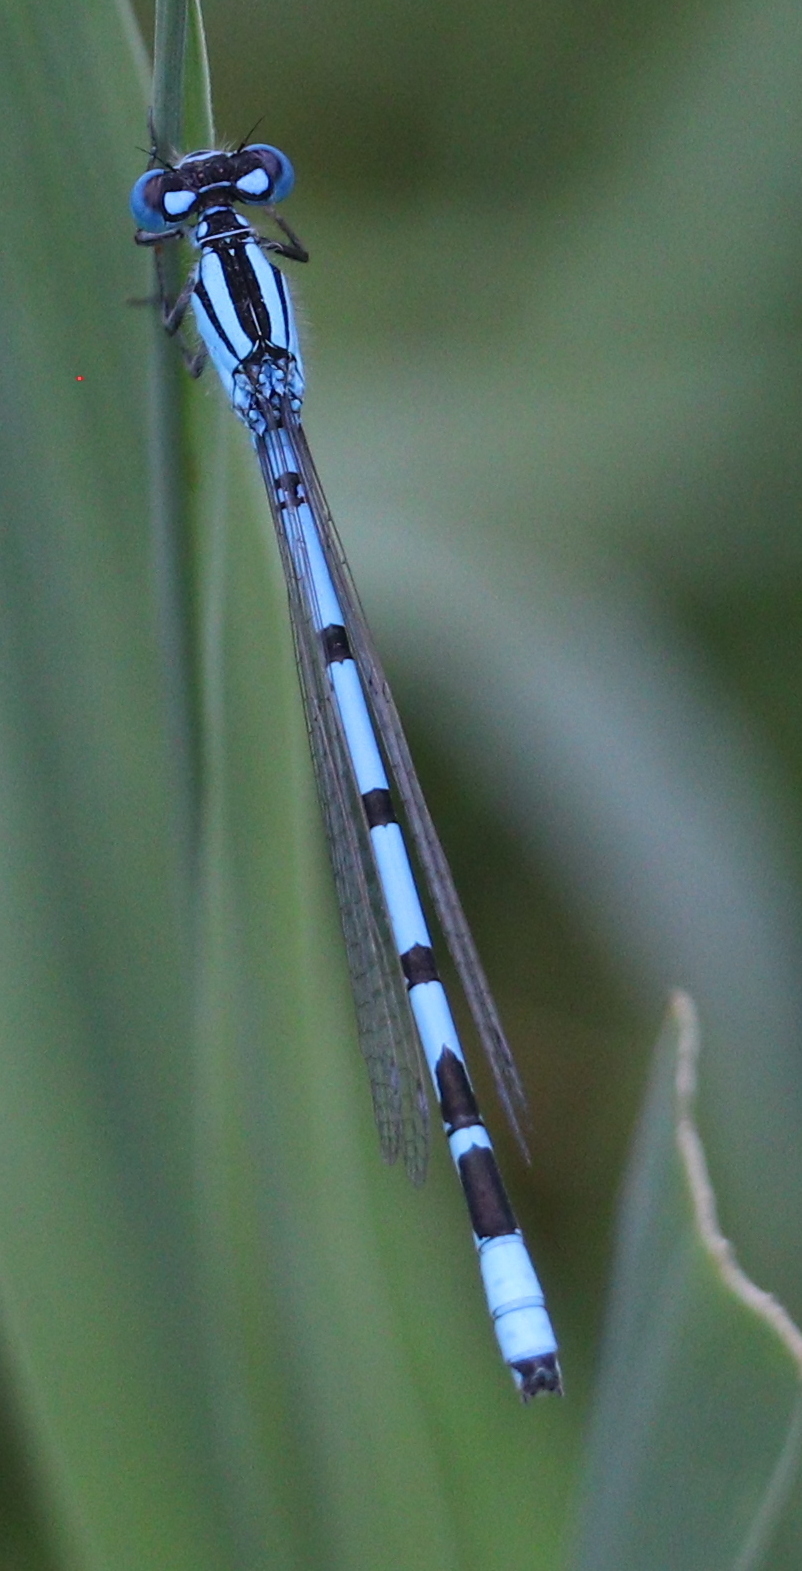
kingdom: Animalia
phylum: Arthropoda
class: Insecta
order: Odonata
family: Coenagrionidae
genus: Enallagma
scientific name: Enallagma cyathigerum
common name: Common blue damselfly
